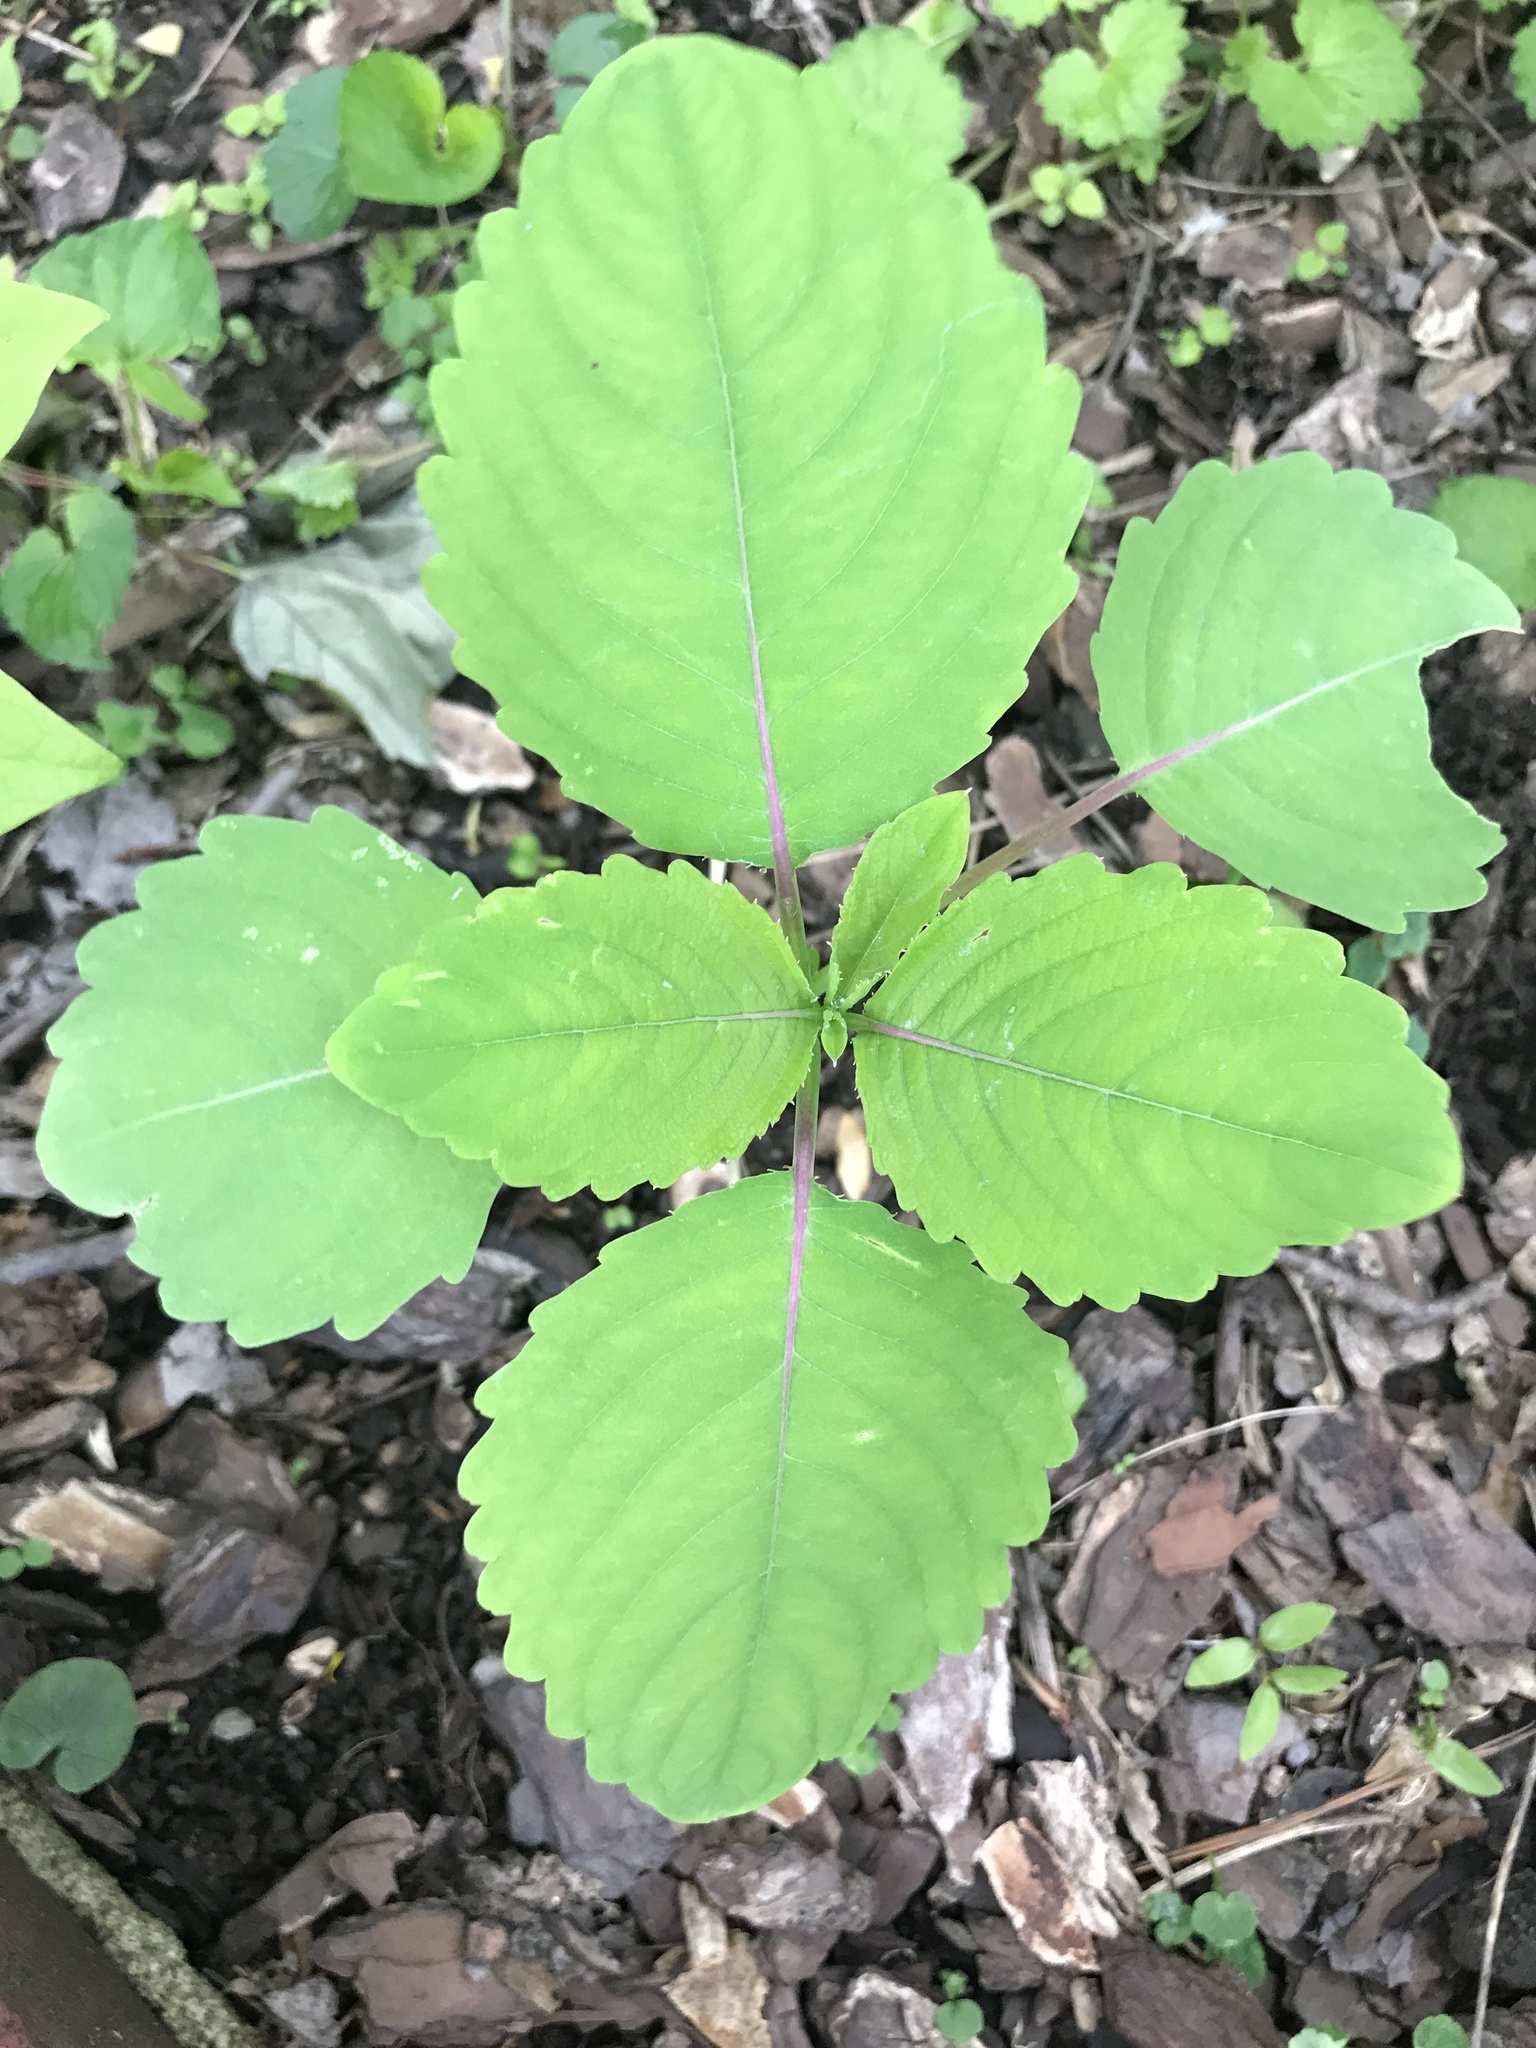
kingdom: Plantae
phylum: Tracheophyta
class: Magnoliopsida
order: Ericales
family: Balsaminaceae
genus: Impatiens
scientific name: Impatiens pallida
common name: Pale snapweed
